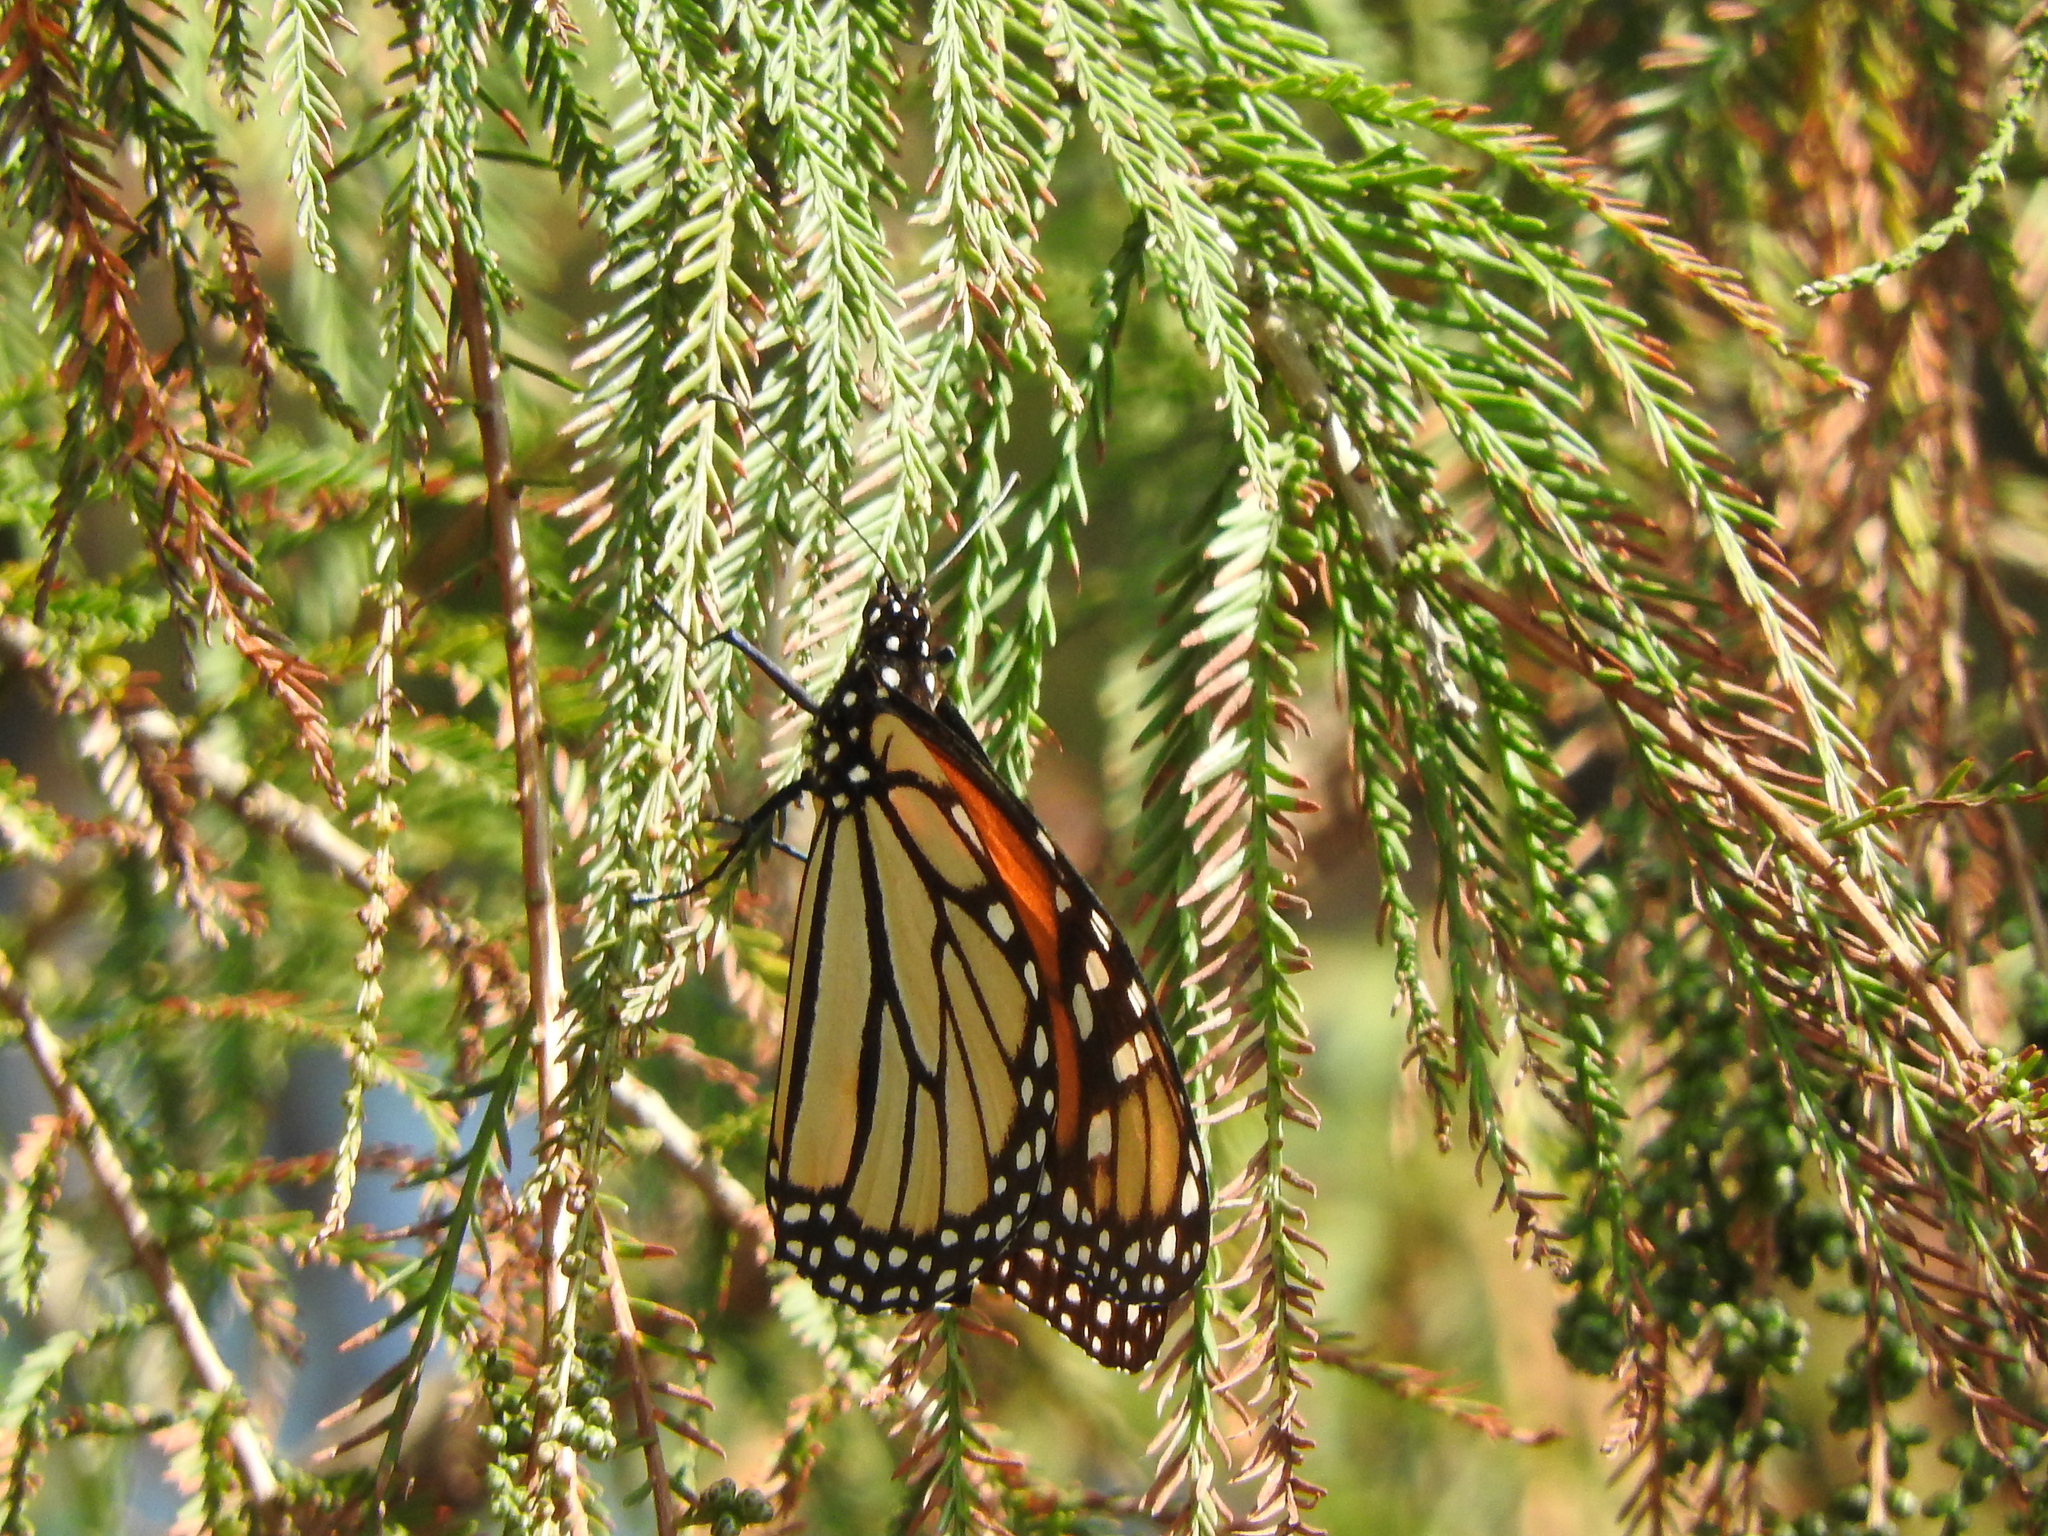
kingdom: Animalia
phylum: Arthropoda
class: Insecta
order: Lepidoptera
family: Nymphalidae
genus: Danaus
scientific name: Danaus plexippus
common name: Monarch
